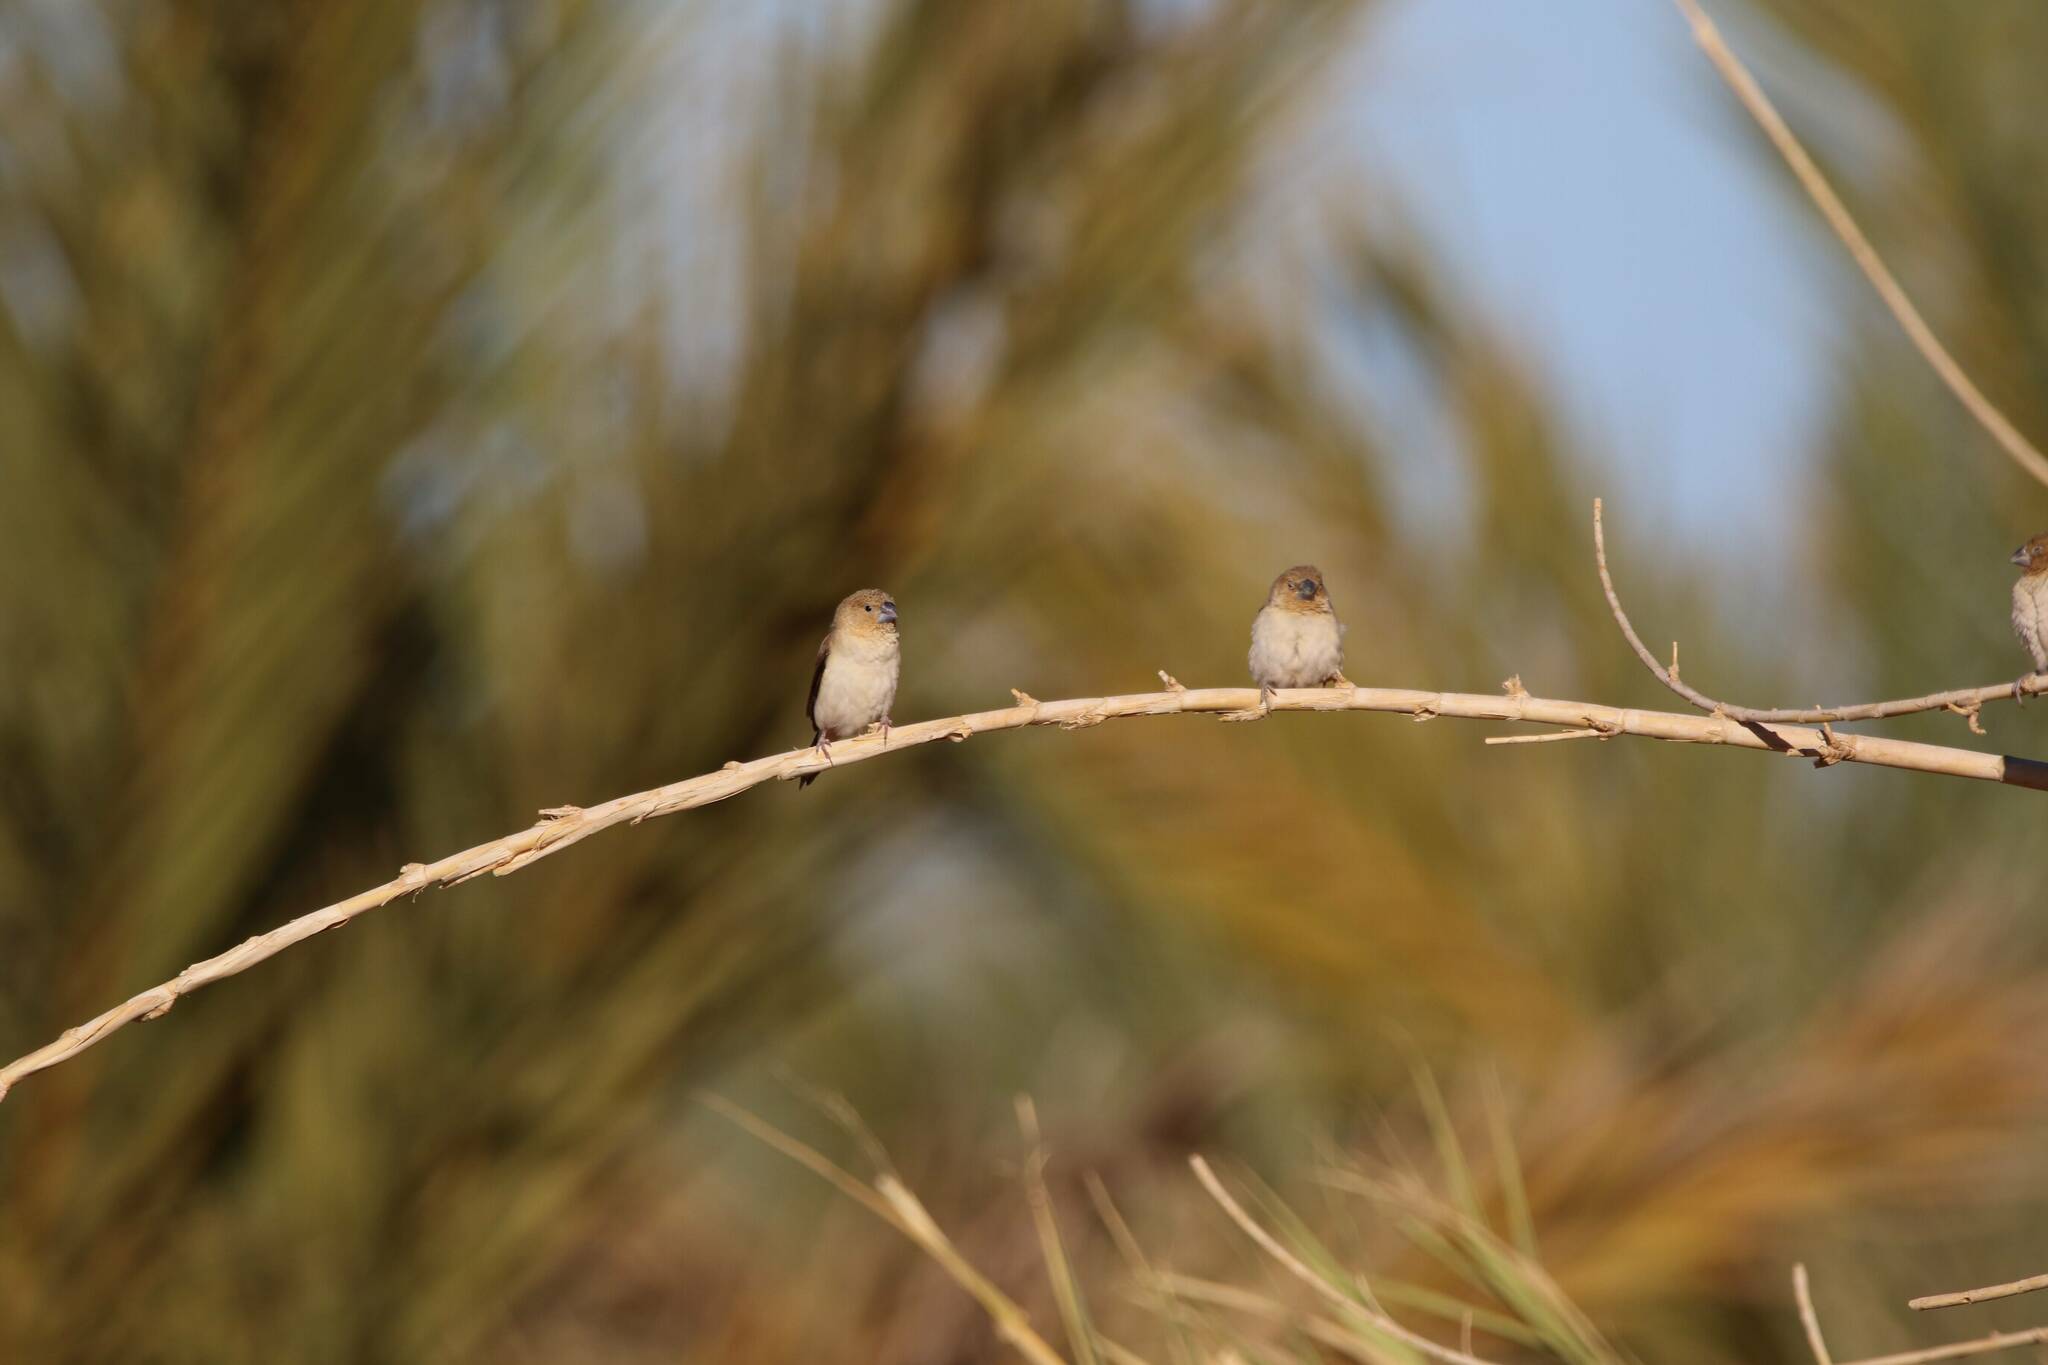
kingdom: Animalia
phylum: Chordata
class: Aves
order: Passeriformes
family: Estrildidae
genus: Euodice
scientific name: Euodice cantans
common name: African silverbill
